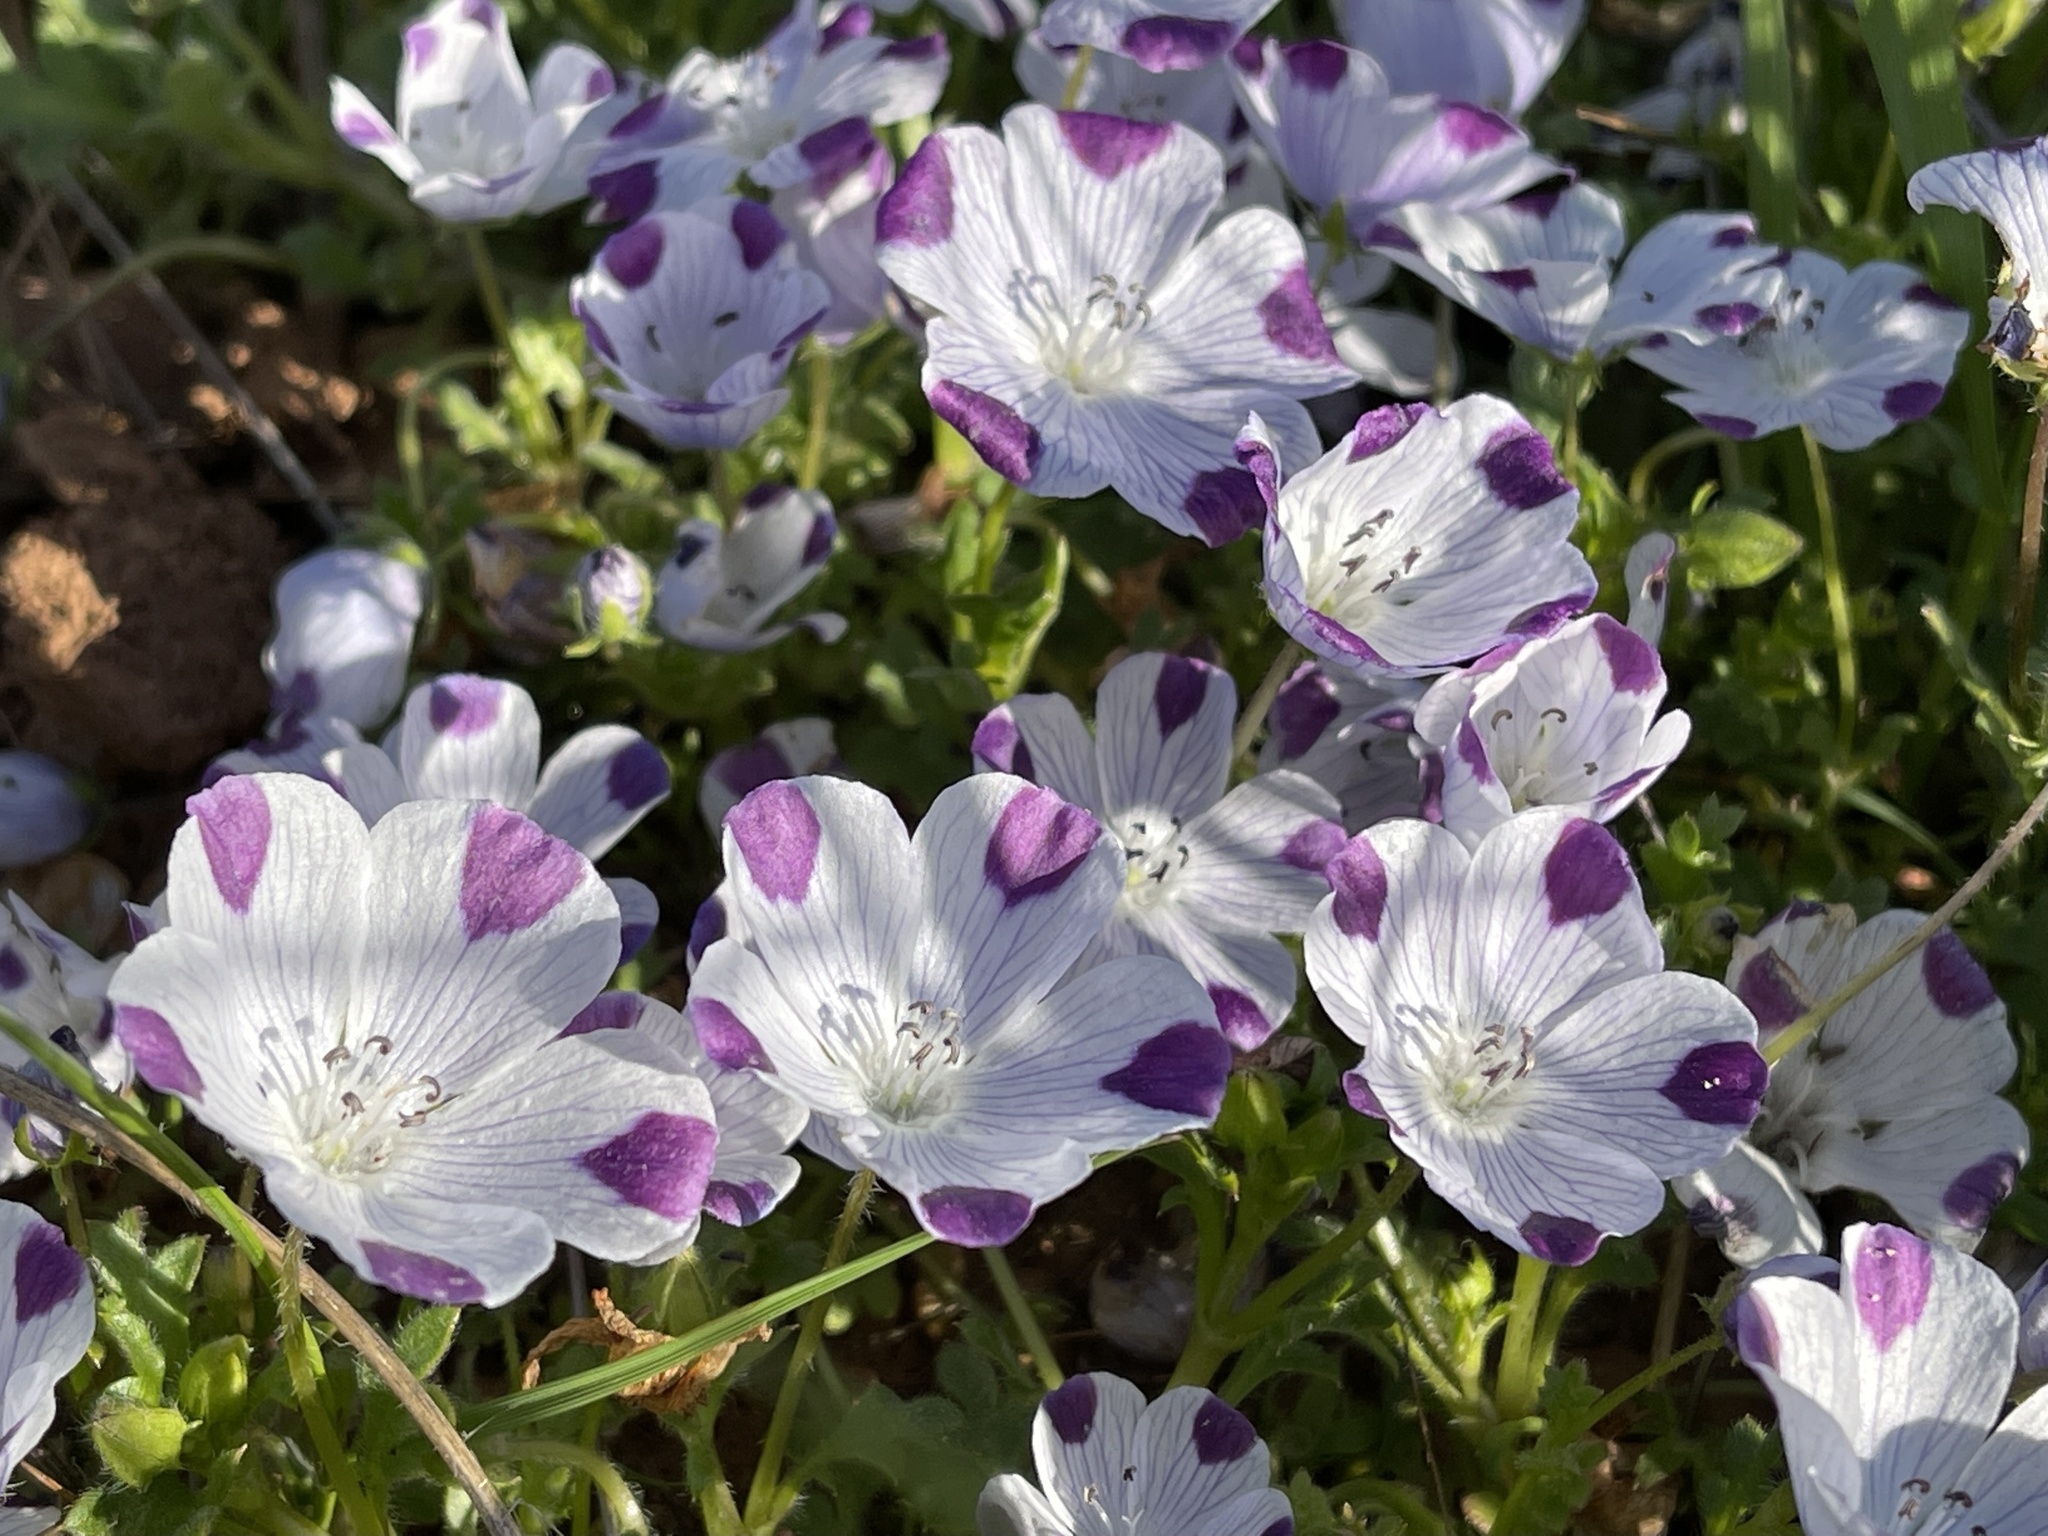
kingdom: Plantae
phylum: Tracheophyta
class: Magnoliopsida
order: Boraginales
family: Hydrophyllaceae
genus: Nemophila
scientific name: Nemophila maculata
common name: Fivespot
